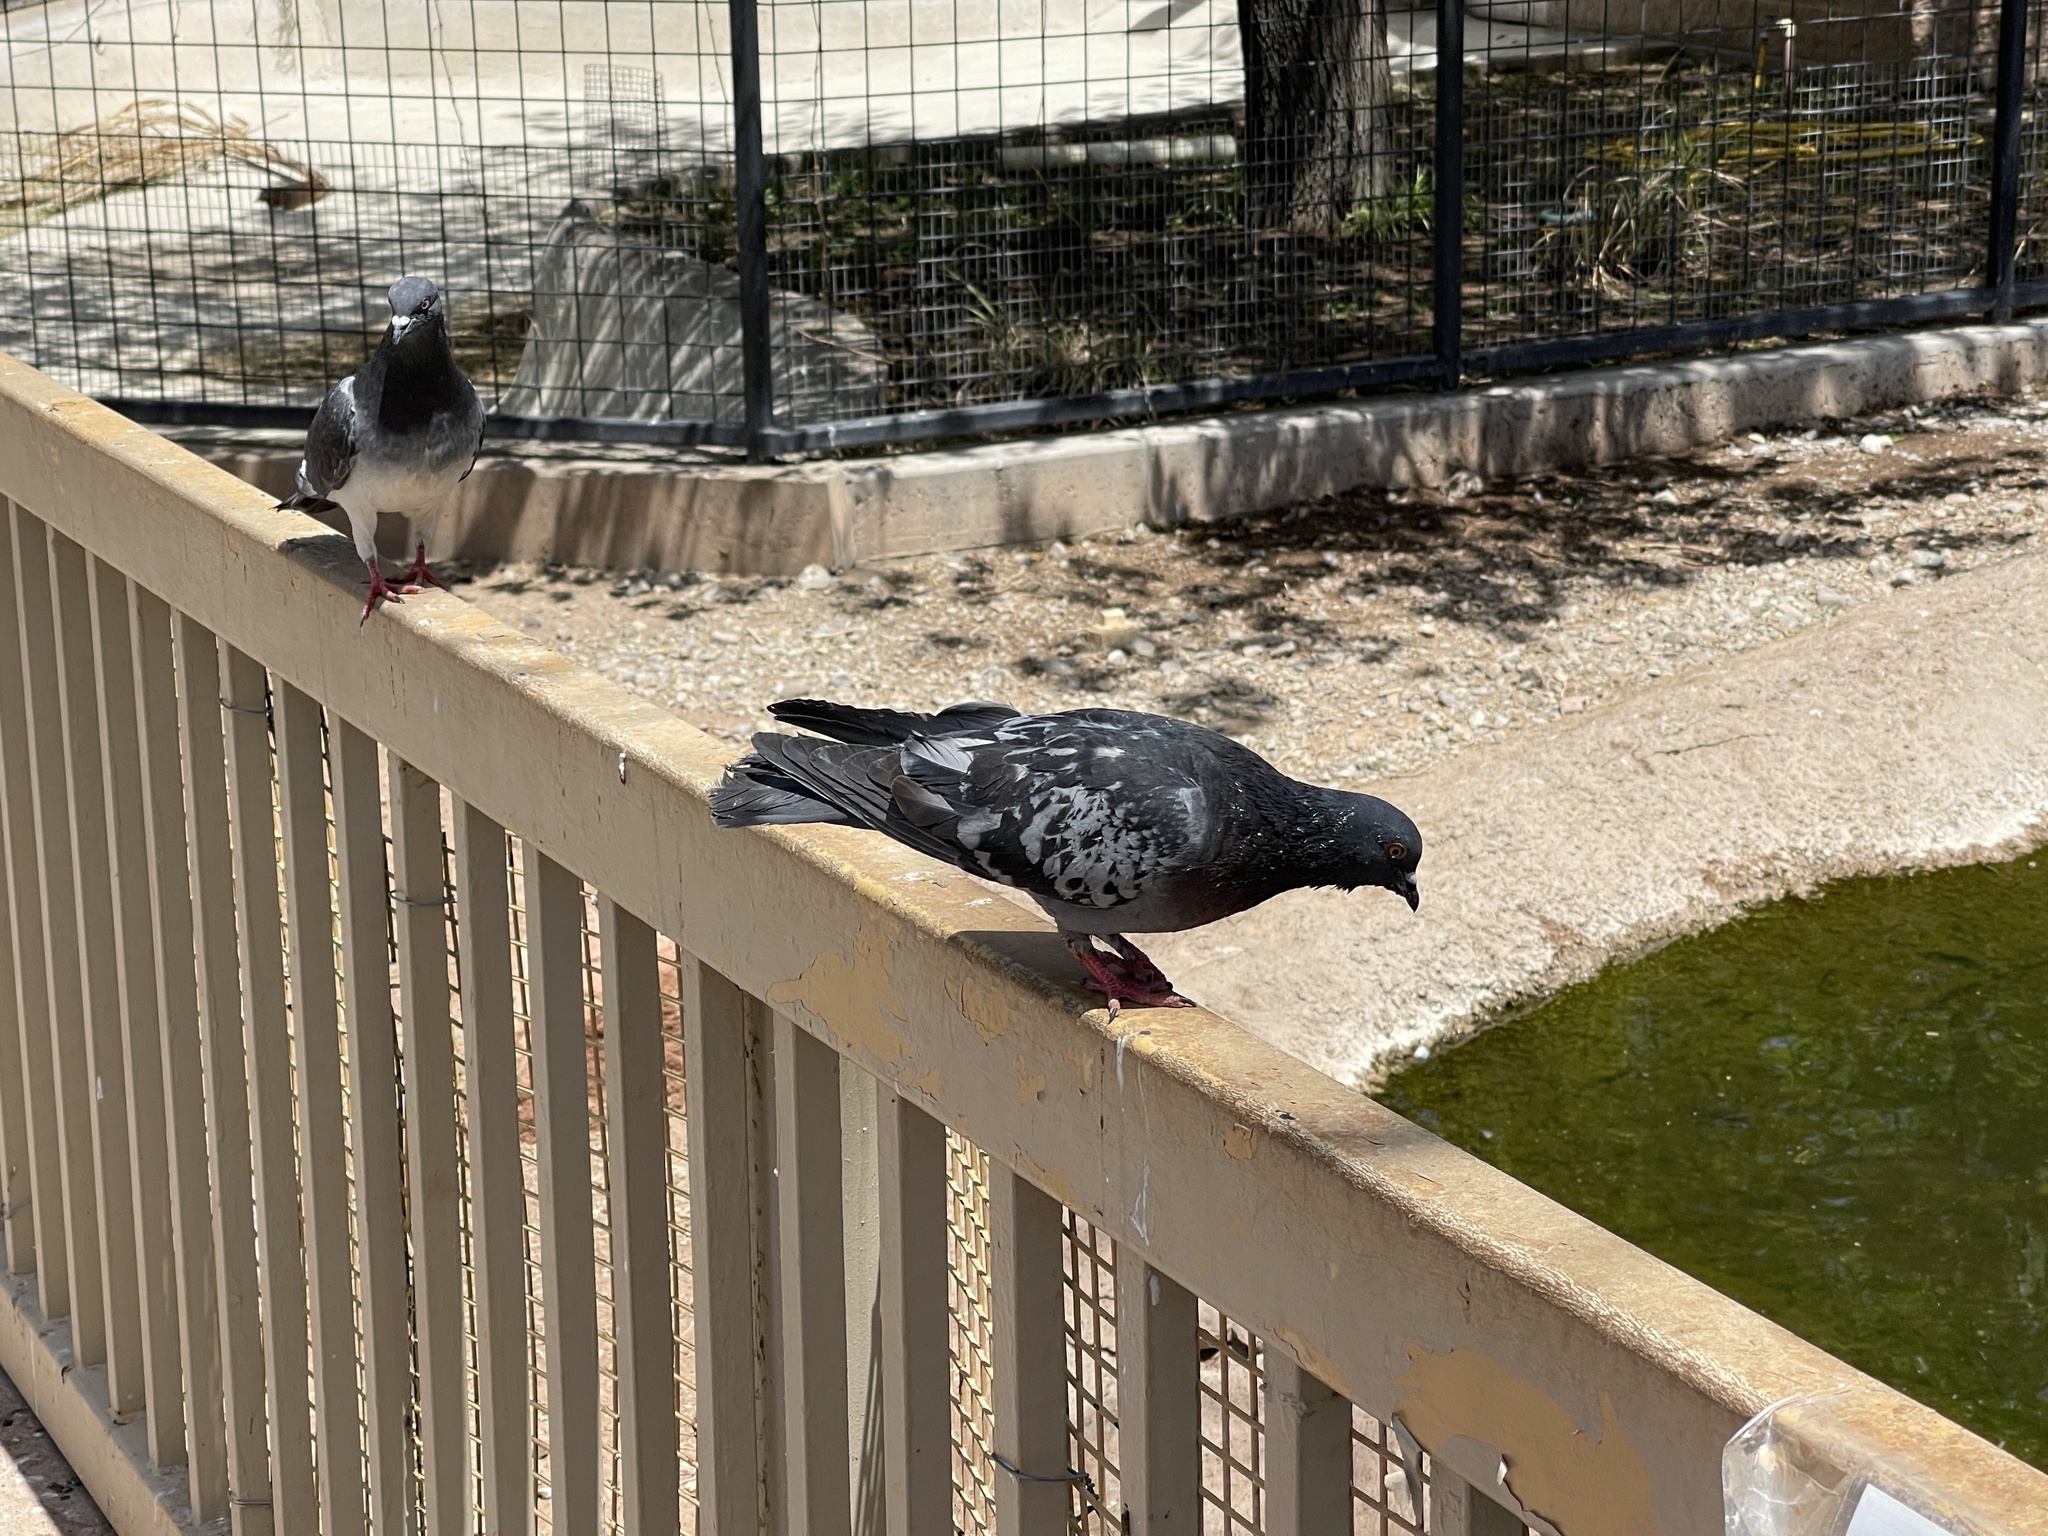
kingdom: Animalia
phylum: Chordata
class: Aves
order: Columbiformes
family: Columbidae
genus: Columba
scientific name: Columba livia
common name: Rock pigeon
